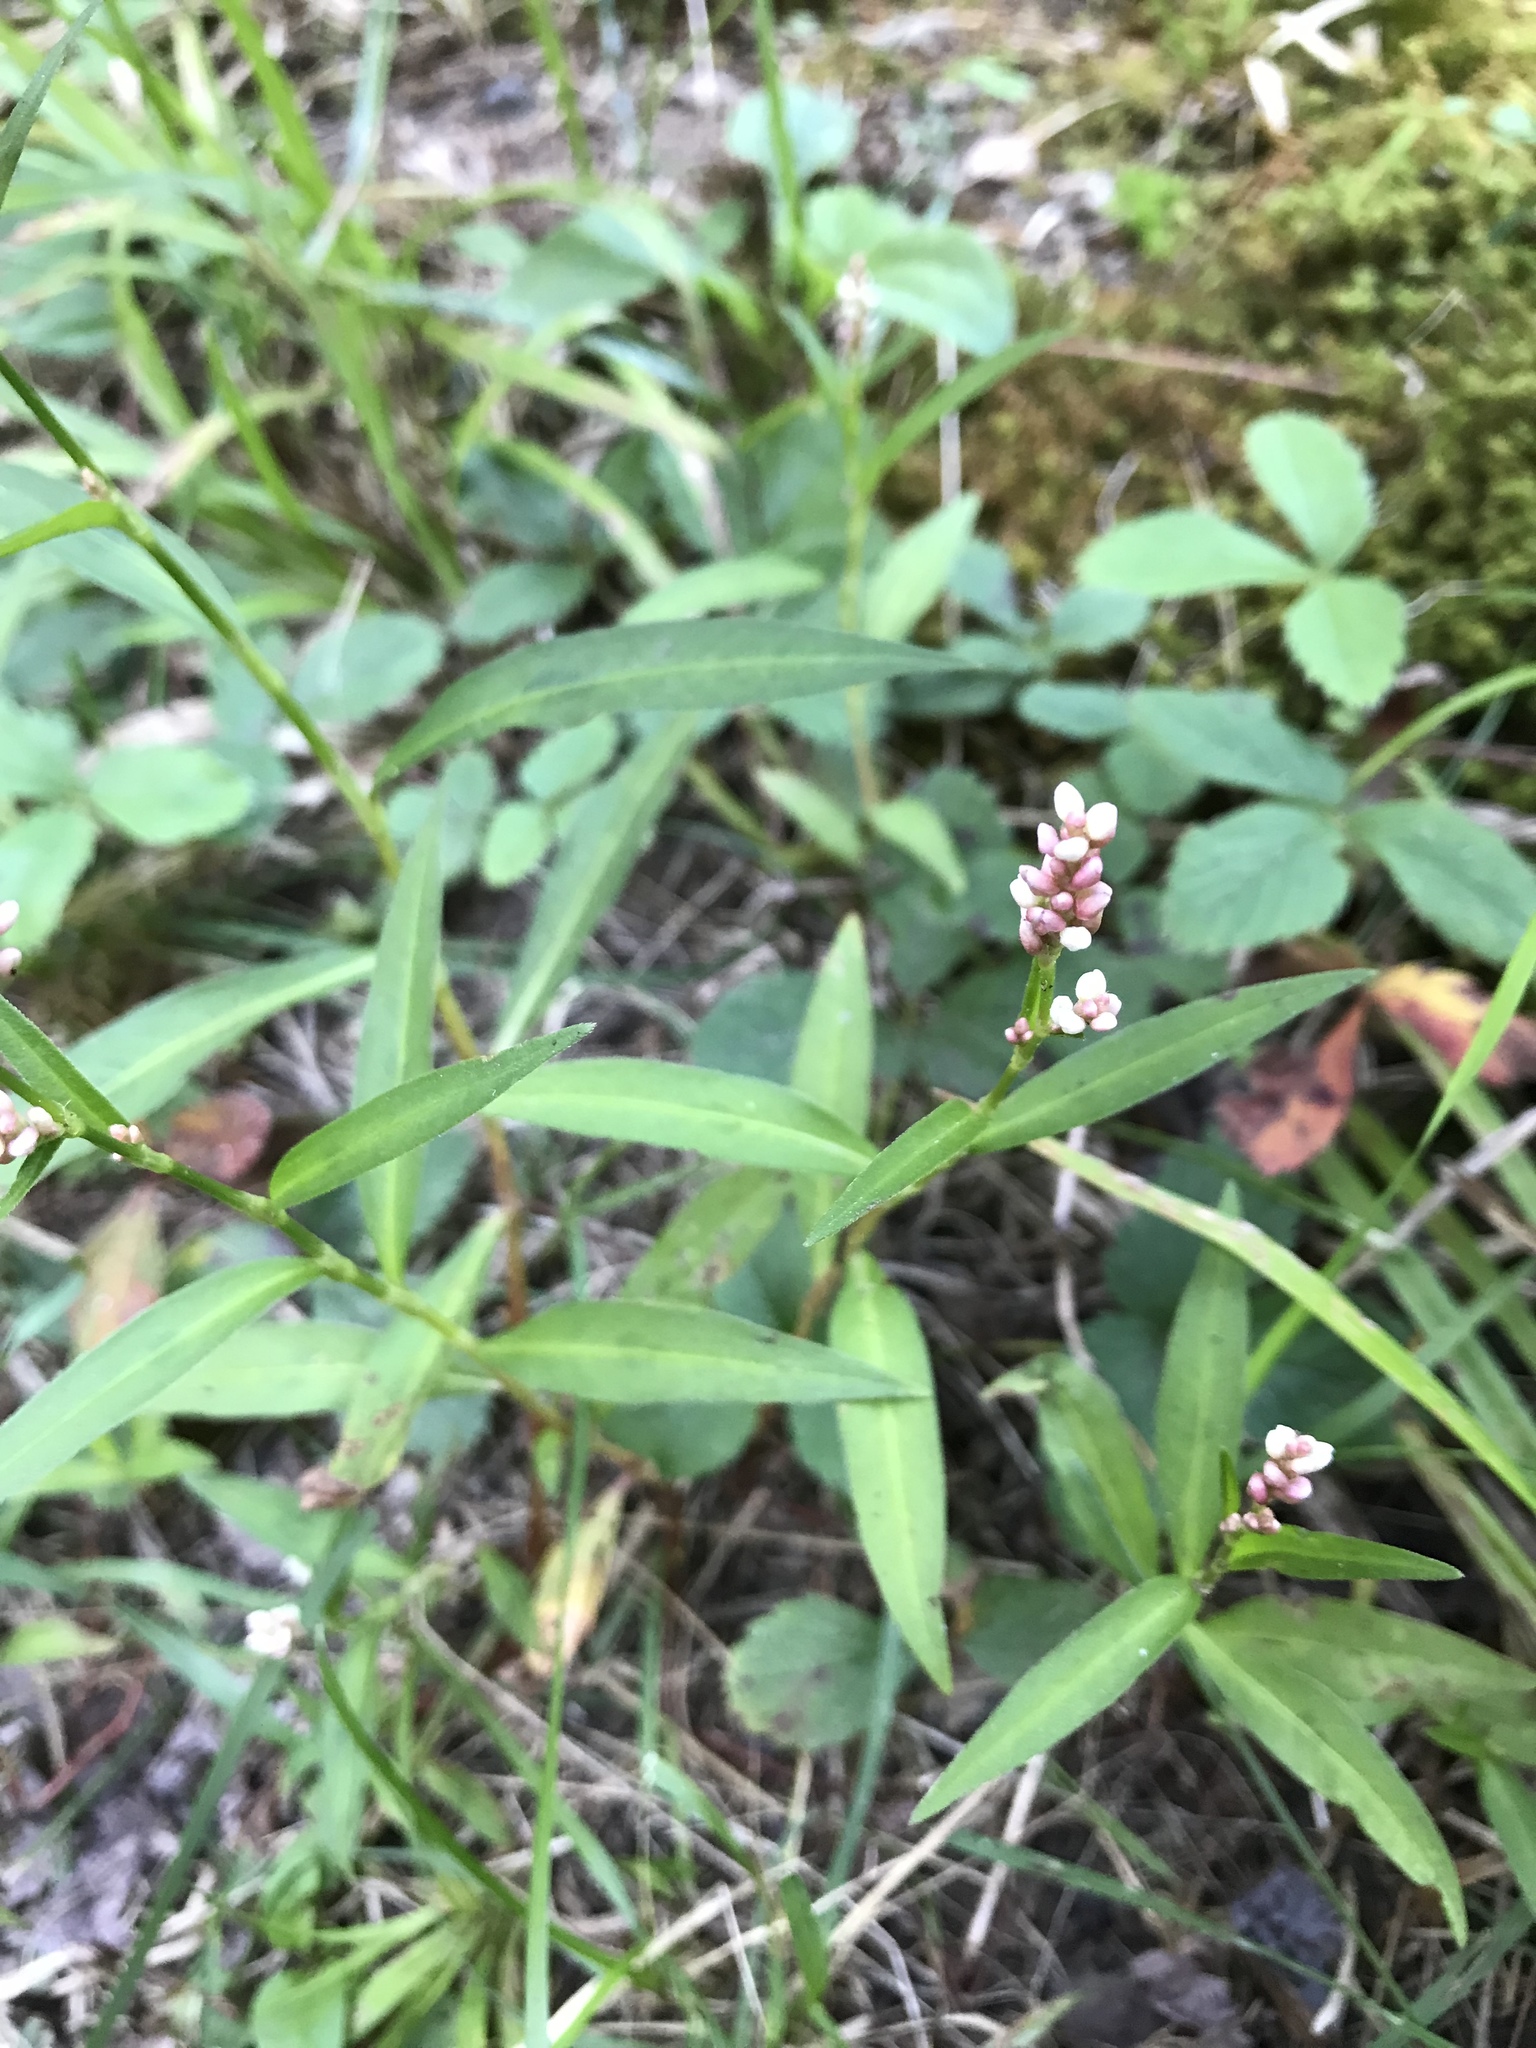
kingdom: Plantae
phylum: Tracheophyta
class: Magnoliopsida
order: Caryophyllales
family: Polygonaceae
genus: Persicaria
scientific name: Persicaria maculosa
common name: Redshank
